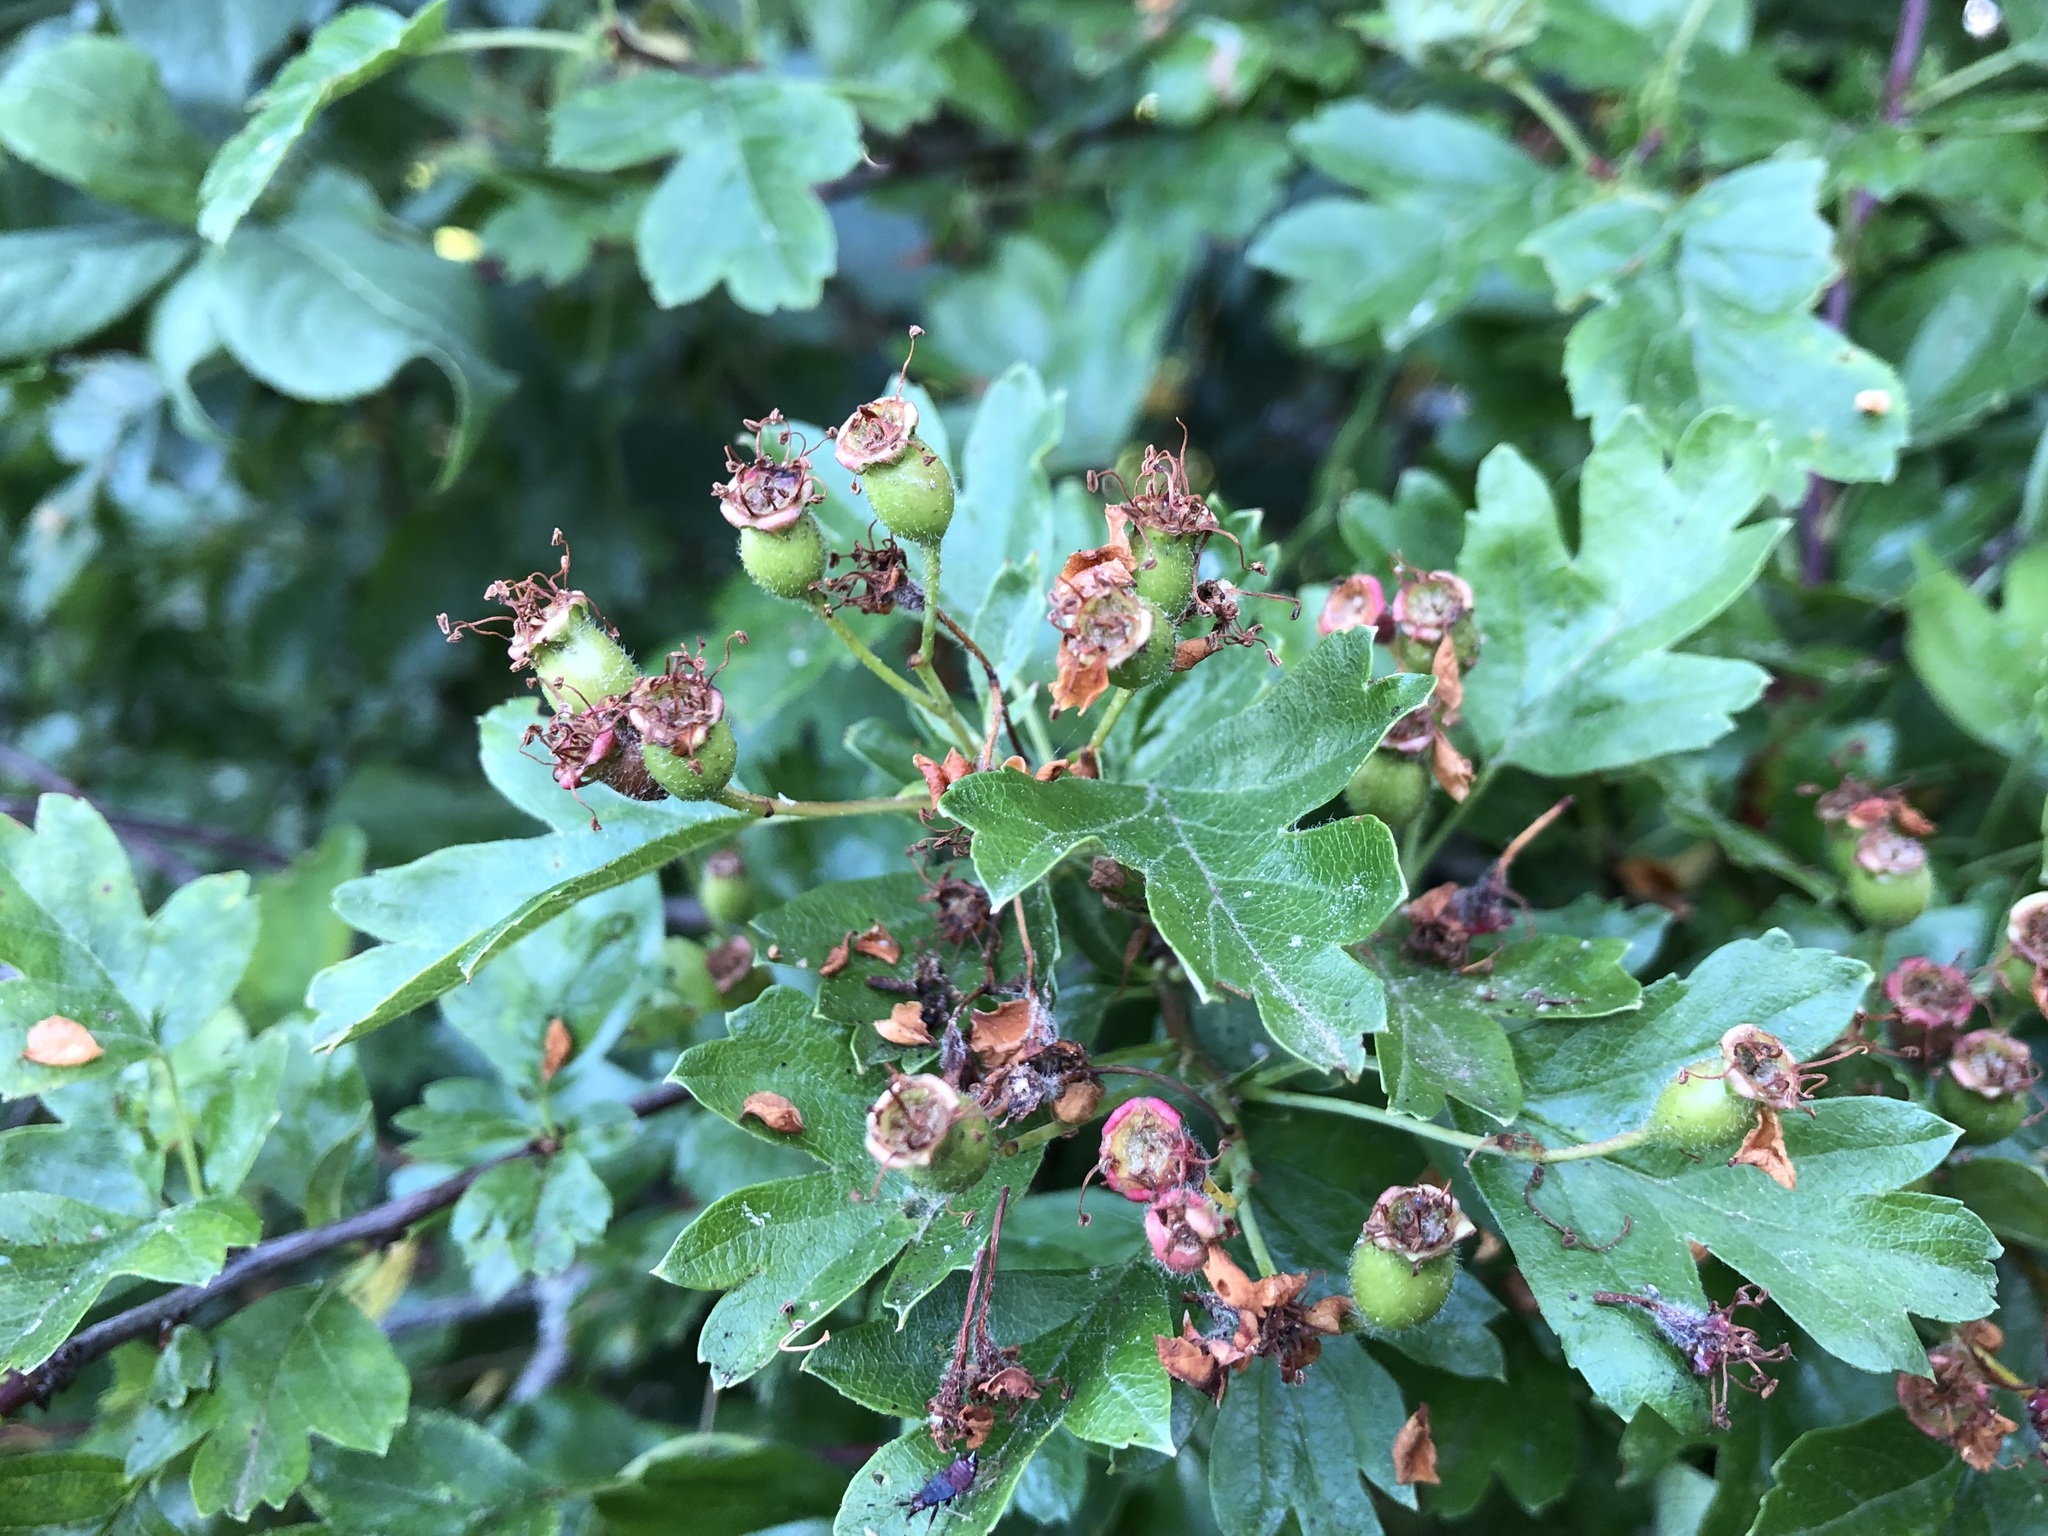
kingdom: Plantae
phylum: Tracheophyta
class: Magnoliopsida
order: Rosales
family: Rosaceae
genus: Crataegus
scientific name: Crataegus monogyna
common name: Hawthorn
